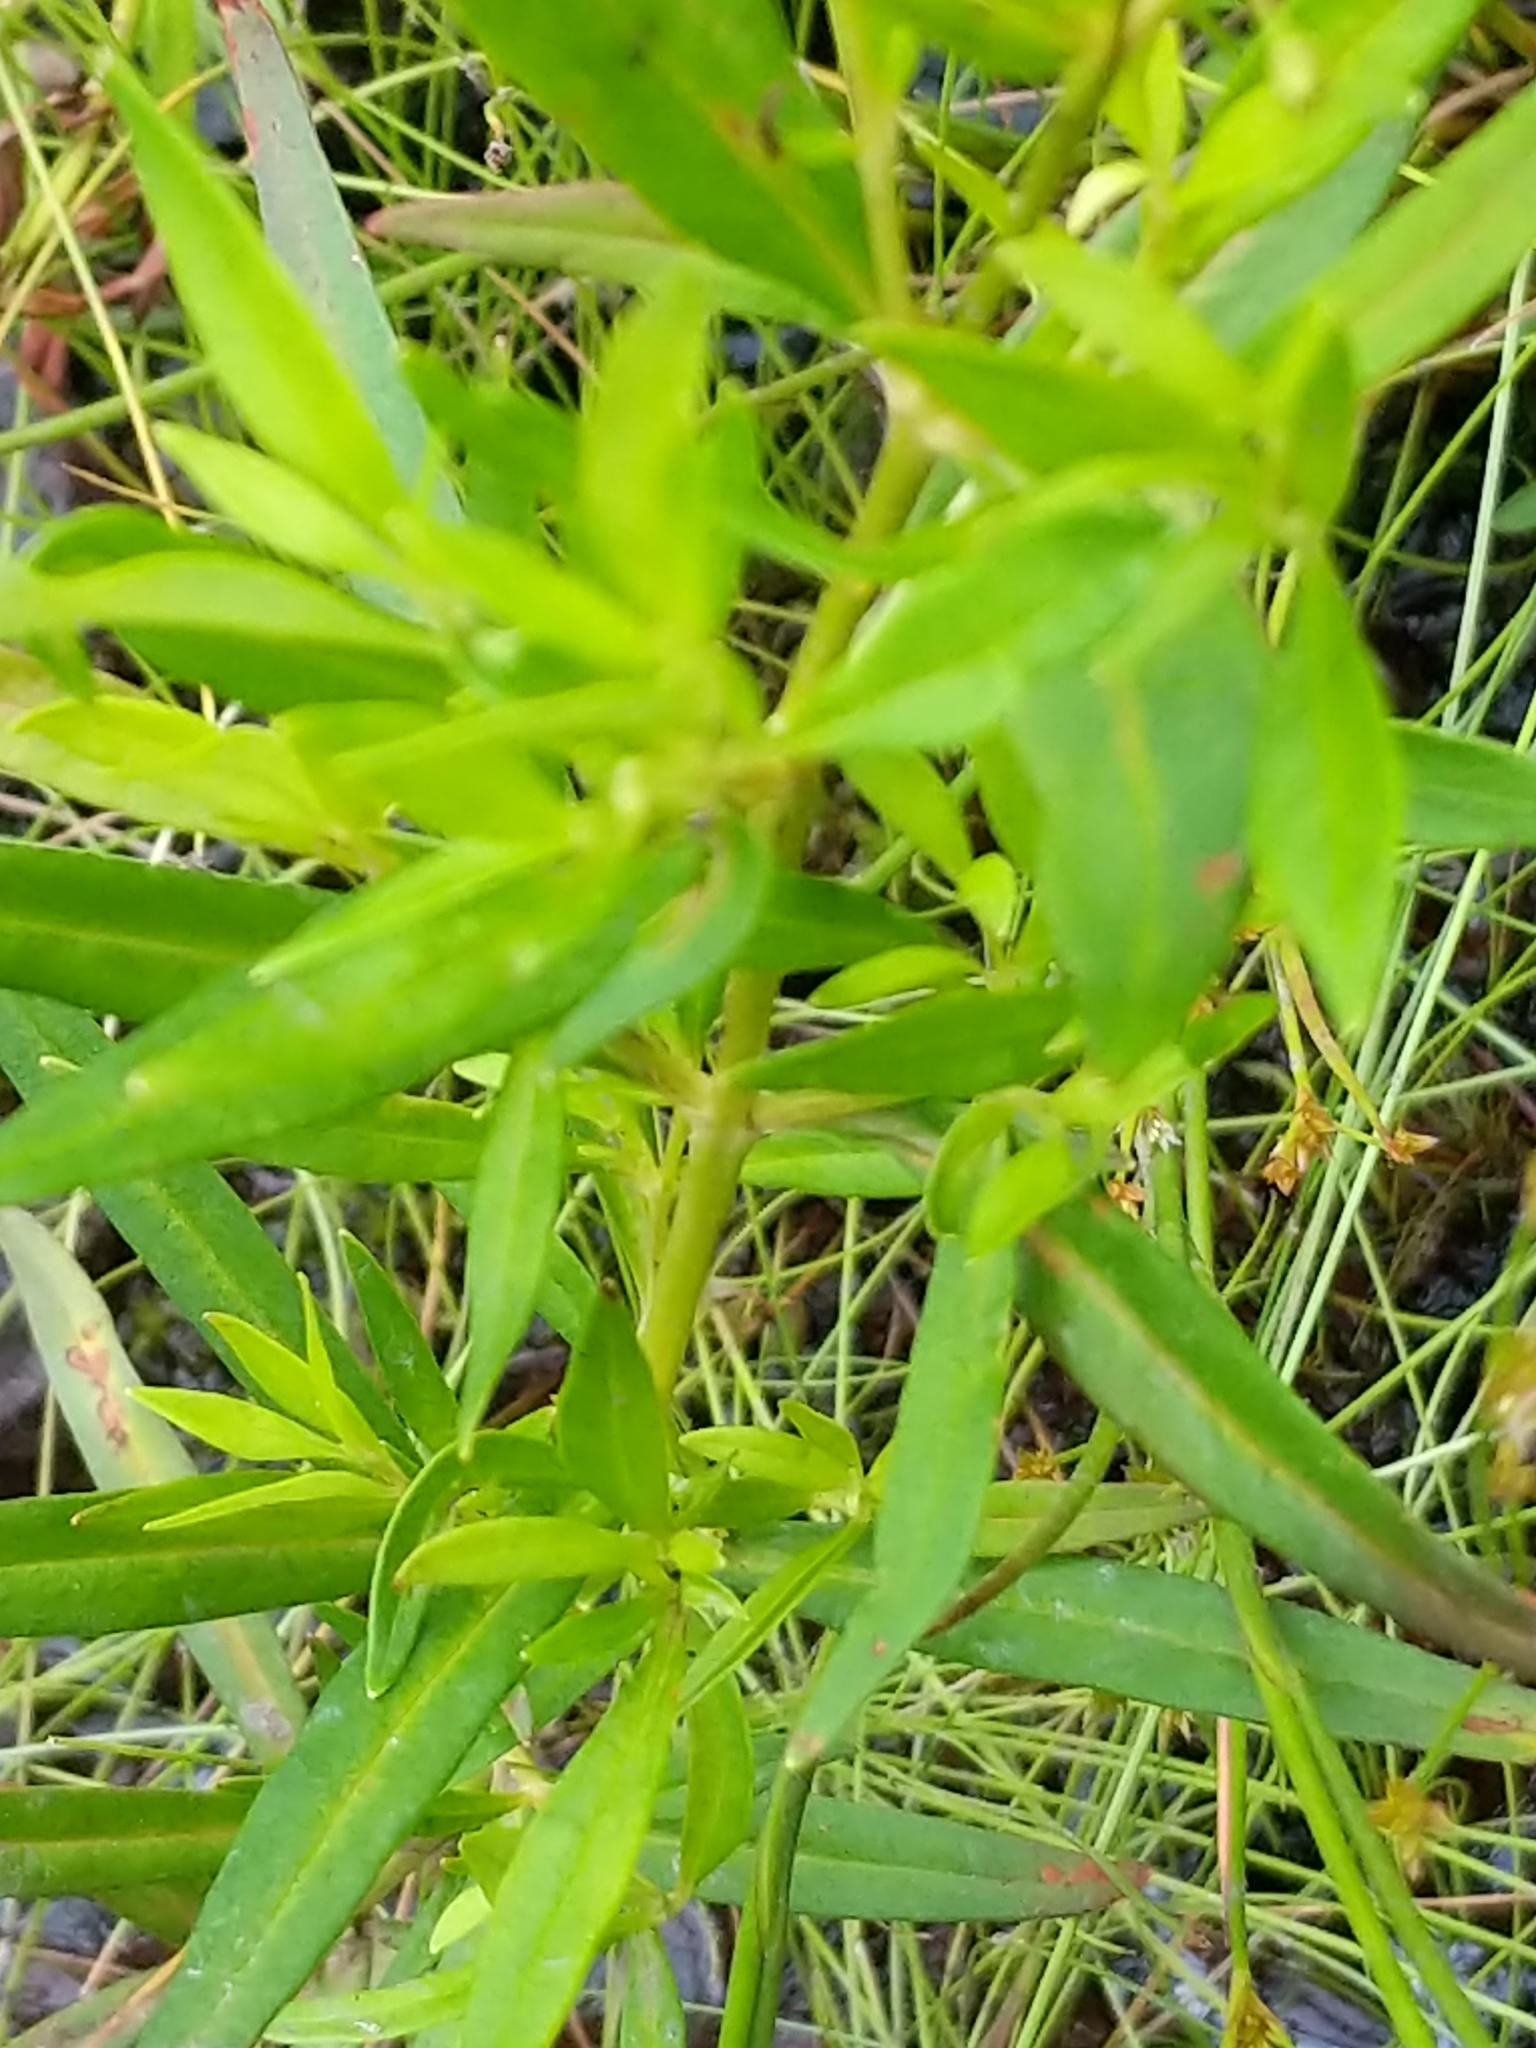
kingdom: Plantae
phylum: Tracheophyta
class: Magnoliopsida
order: Ericales
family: Primulaceae
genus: Lysimachia
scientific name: Lysimachia terrestris
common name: Lake loosestrife
